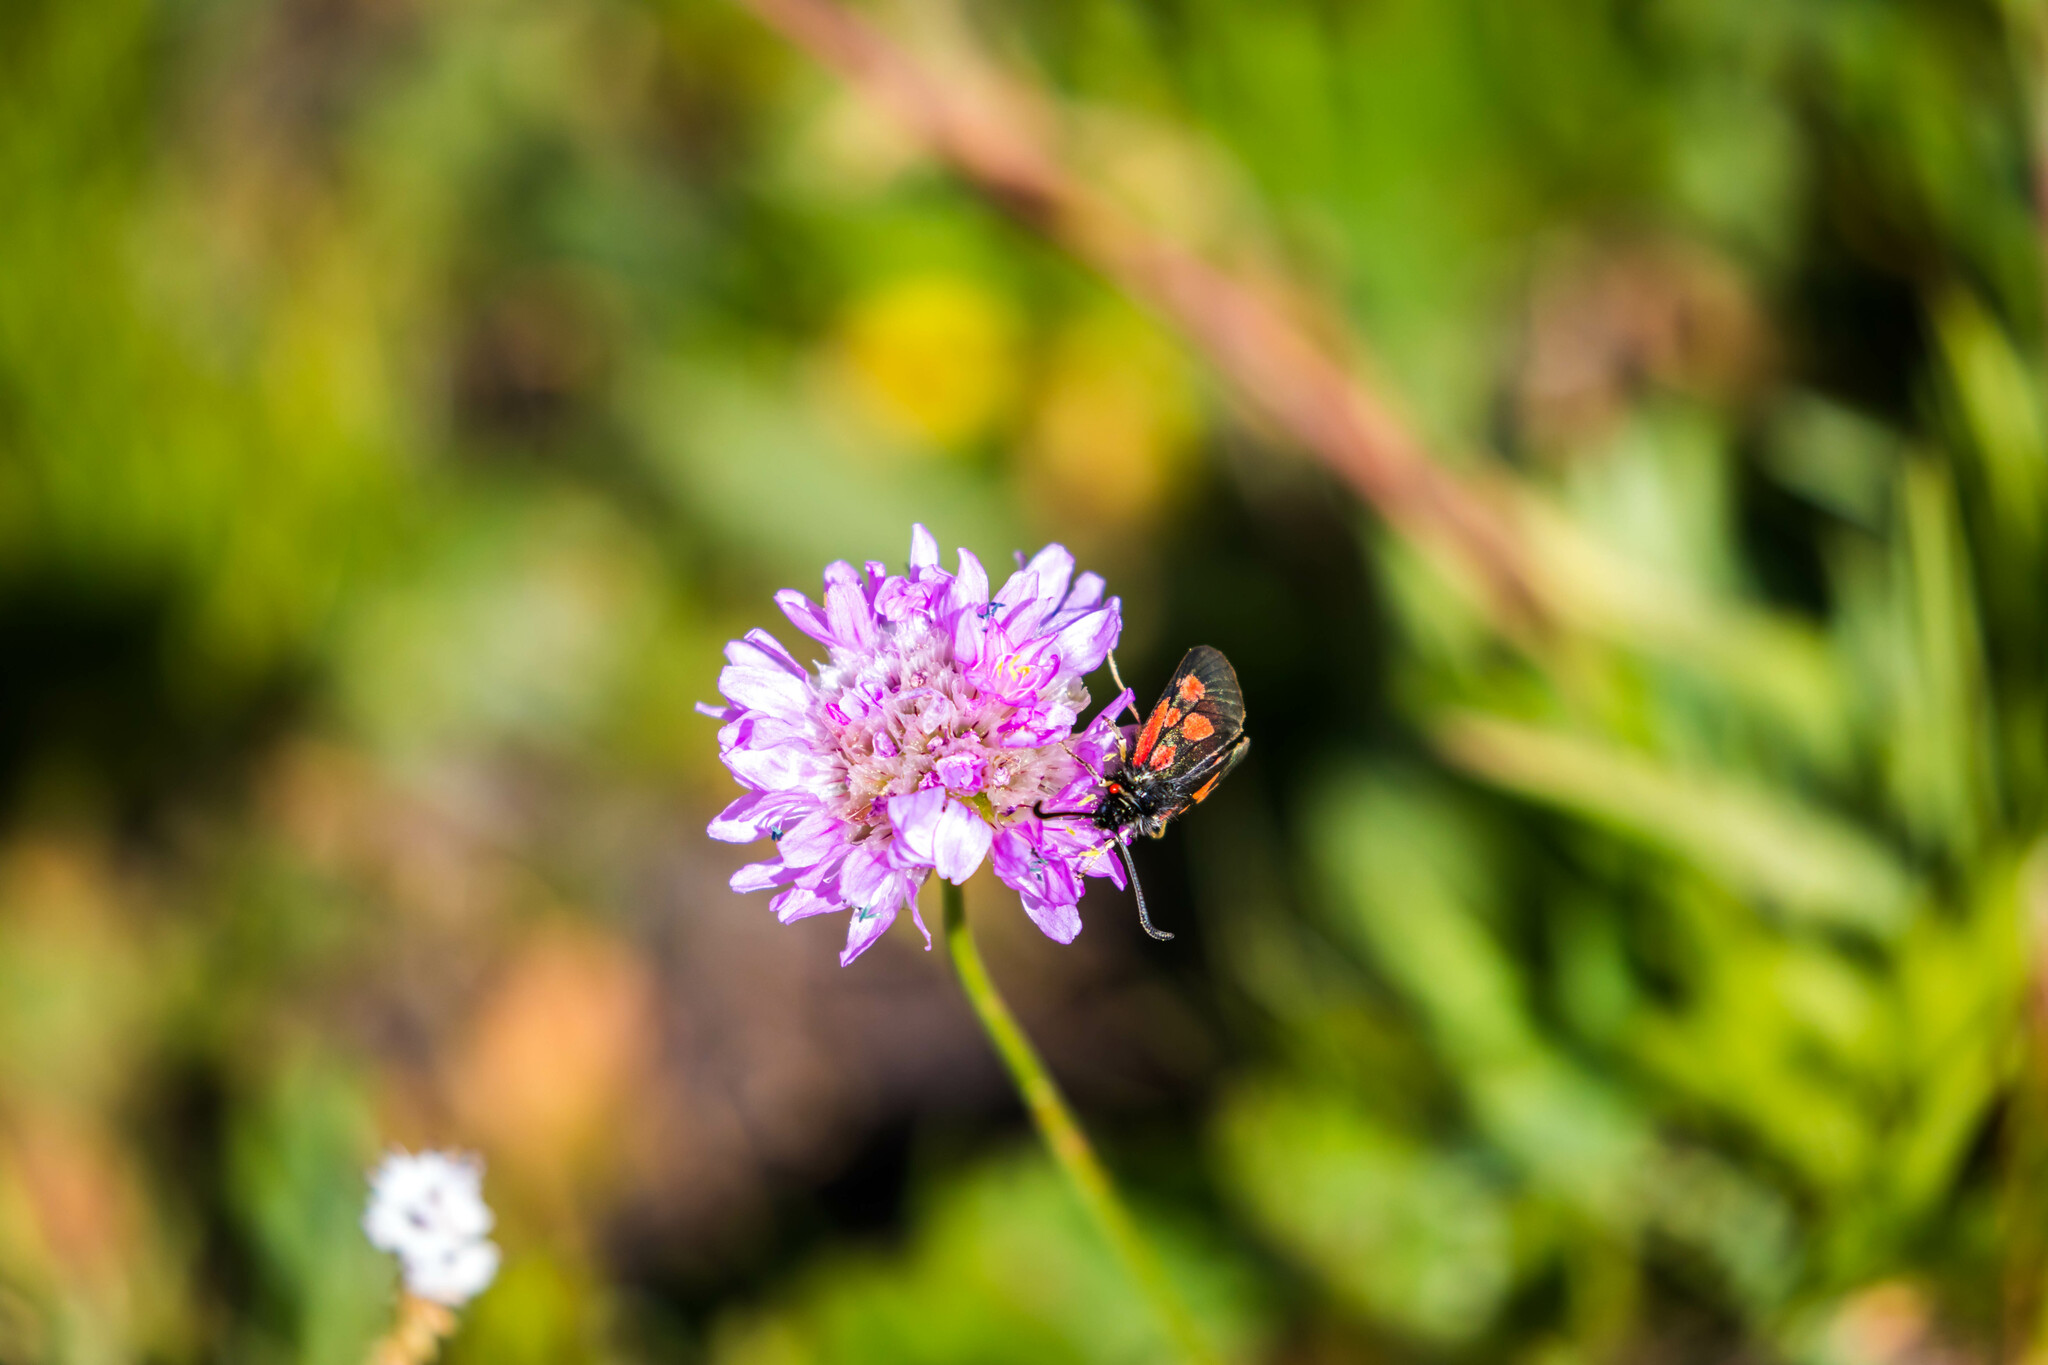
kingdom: Animalia
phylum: Arthropoda
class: Insecta
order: Lepidoptera
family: Zygaenidae
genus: Zygaena
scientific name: Zygaena exulans
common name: Scotch burnet
